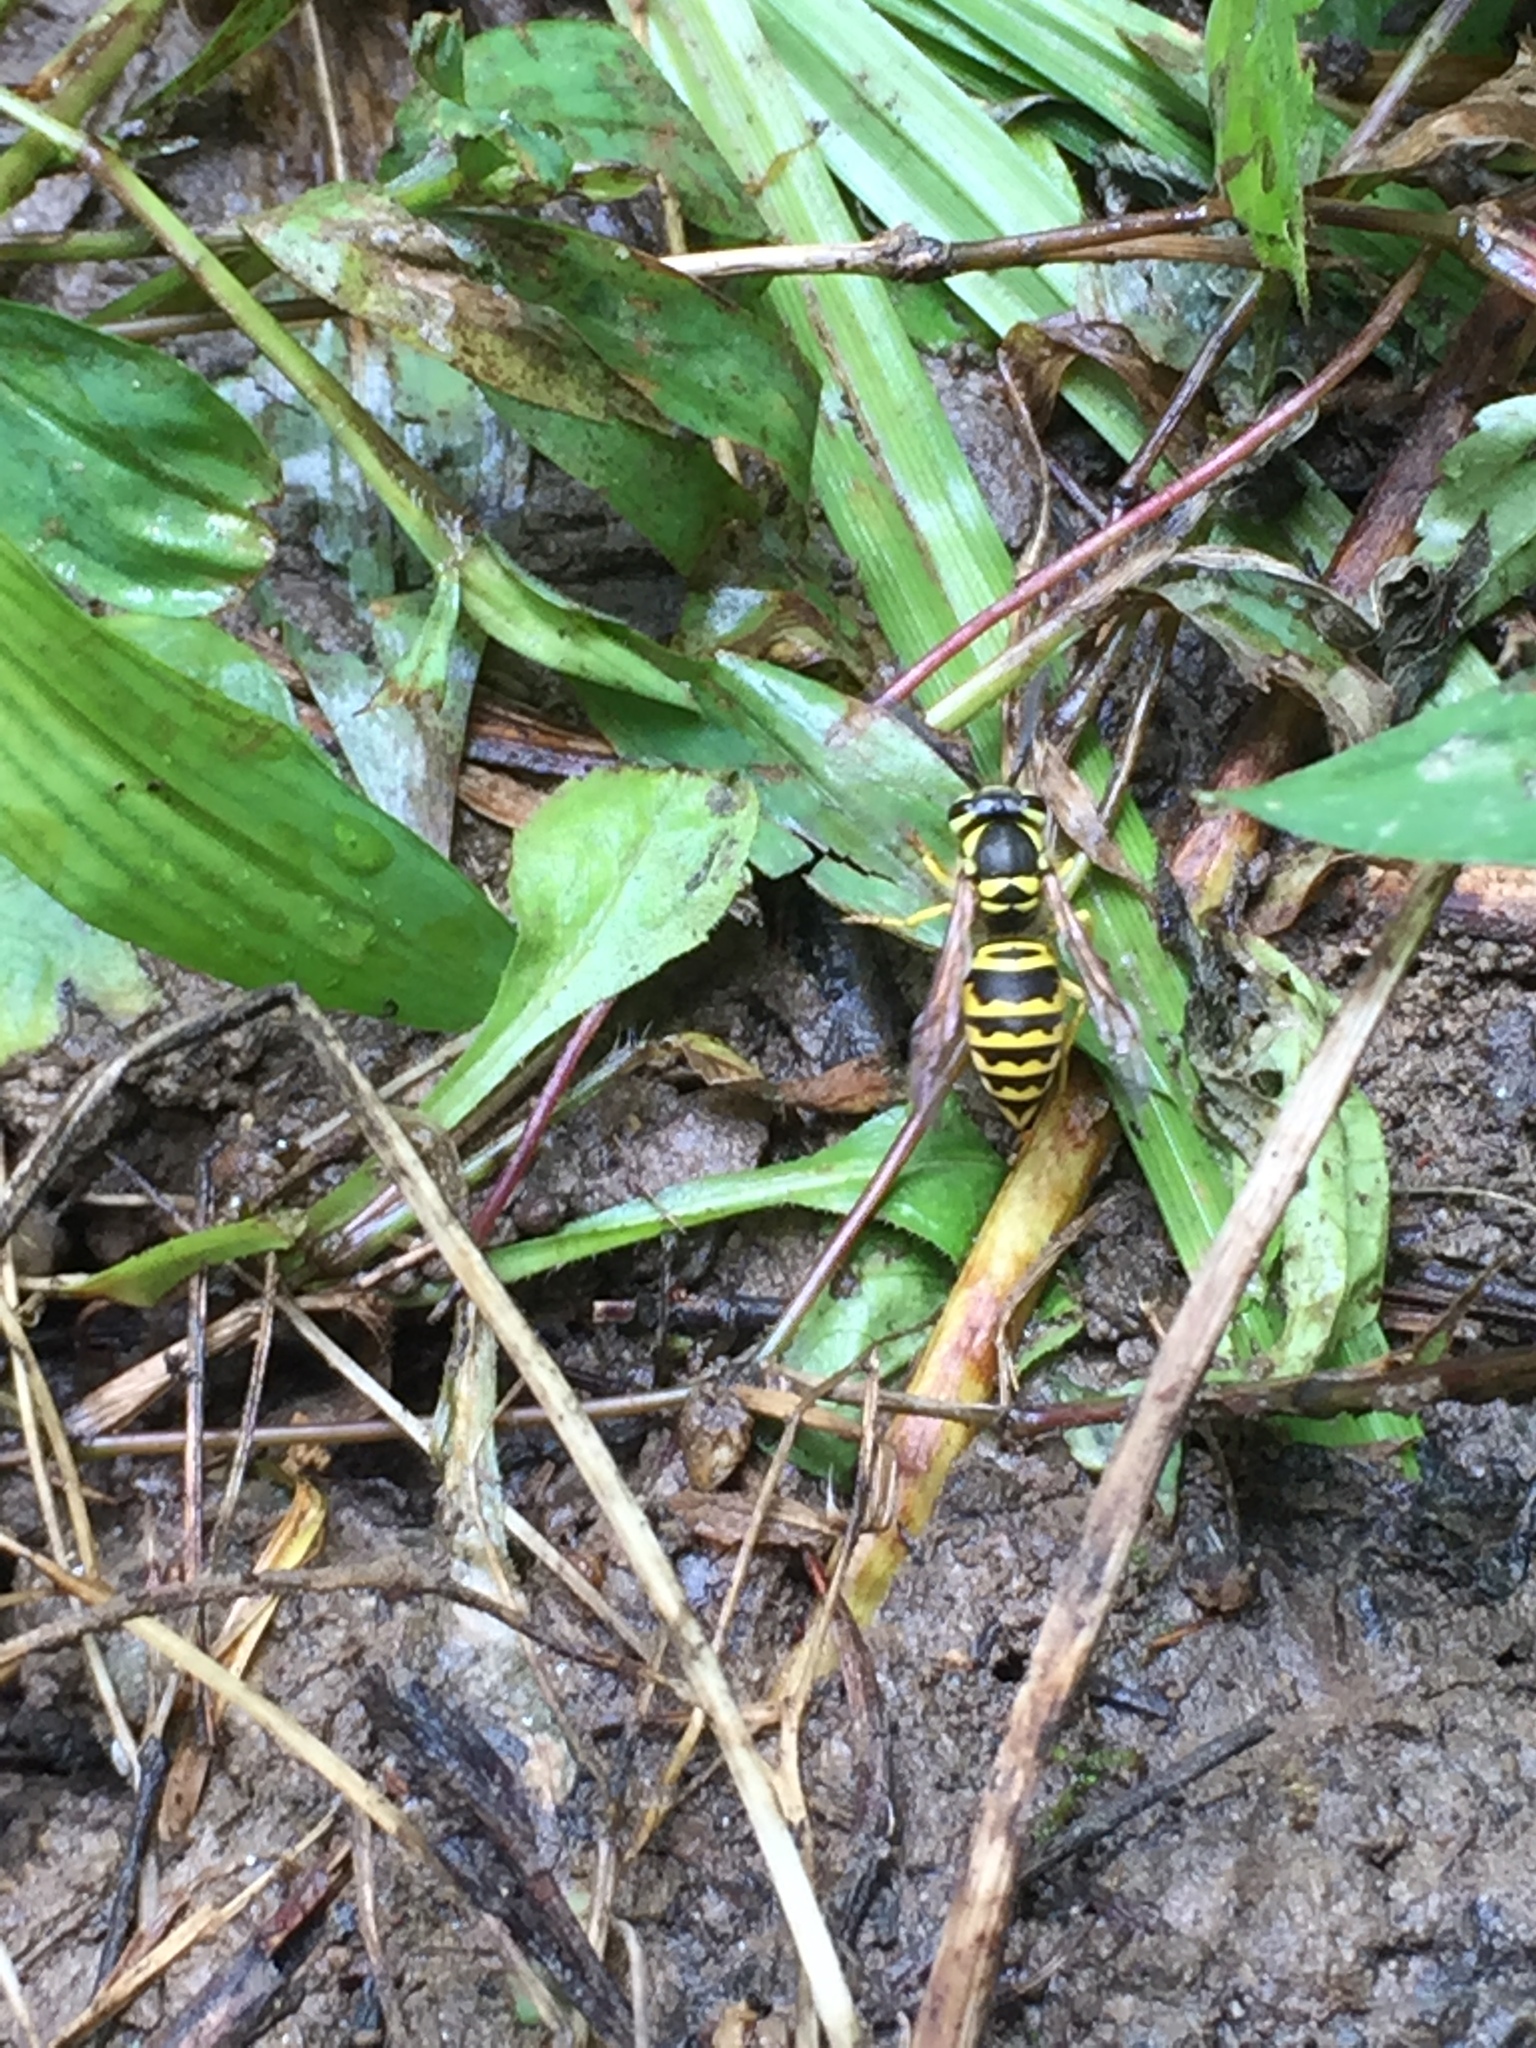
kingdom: Animalia
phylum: Arthropoda
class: Insecta
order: Hymenoptera
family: Vespidae
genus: Vespula
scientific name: Vespula maculifrons
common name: Eastern yellowjacket
